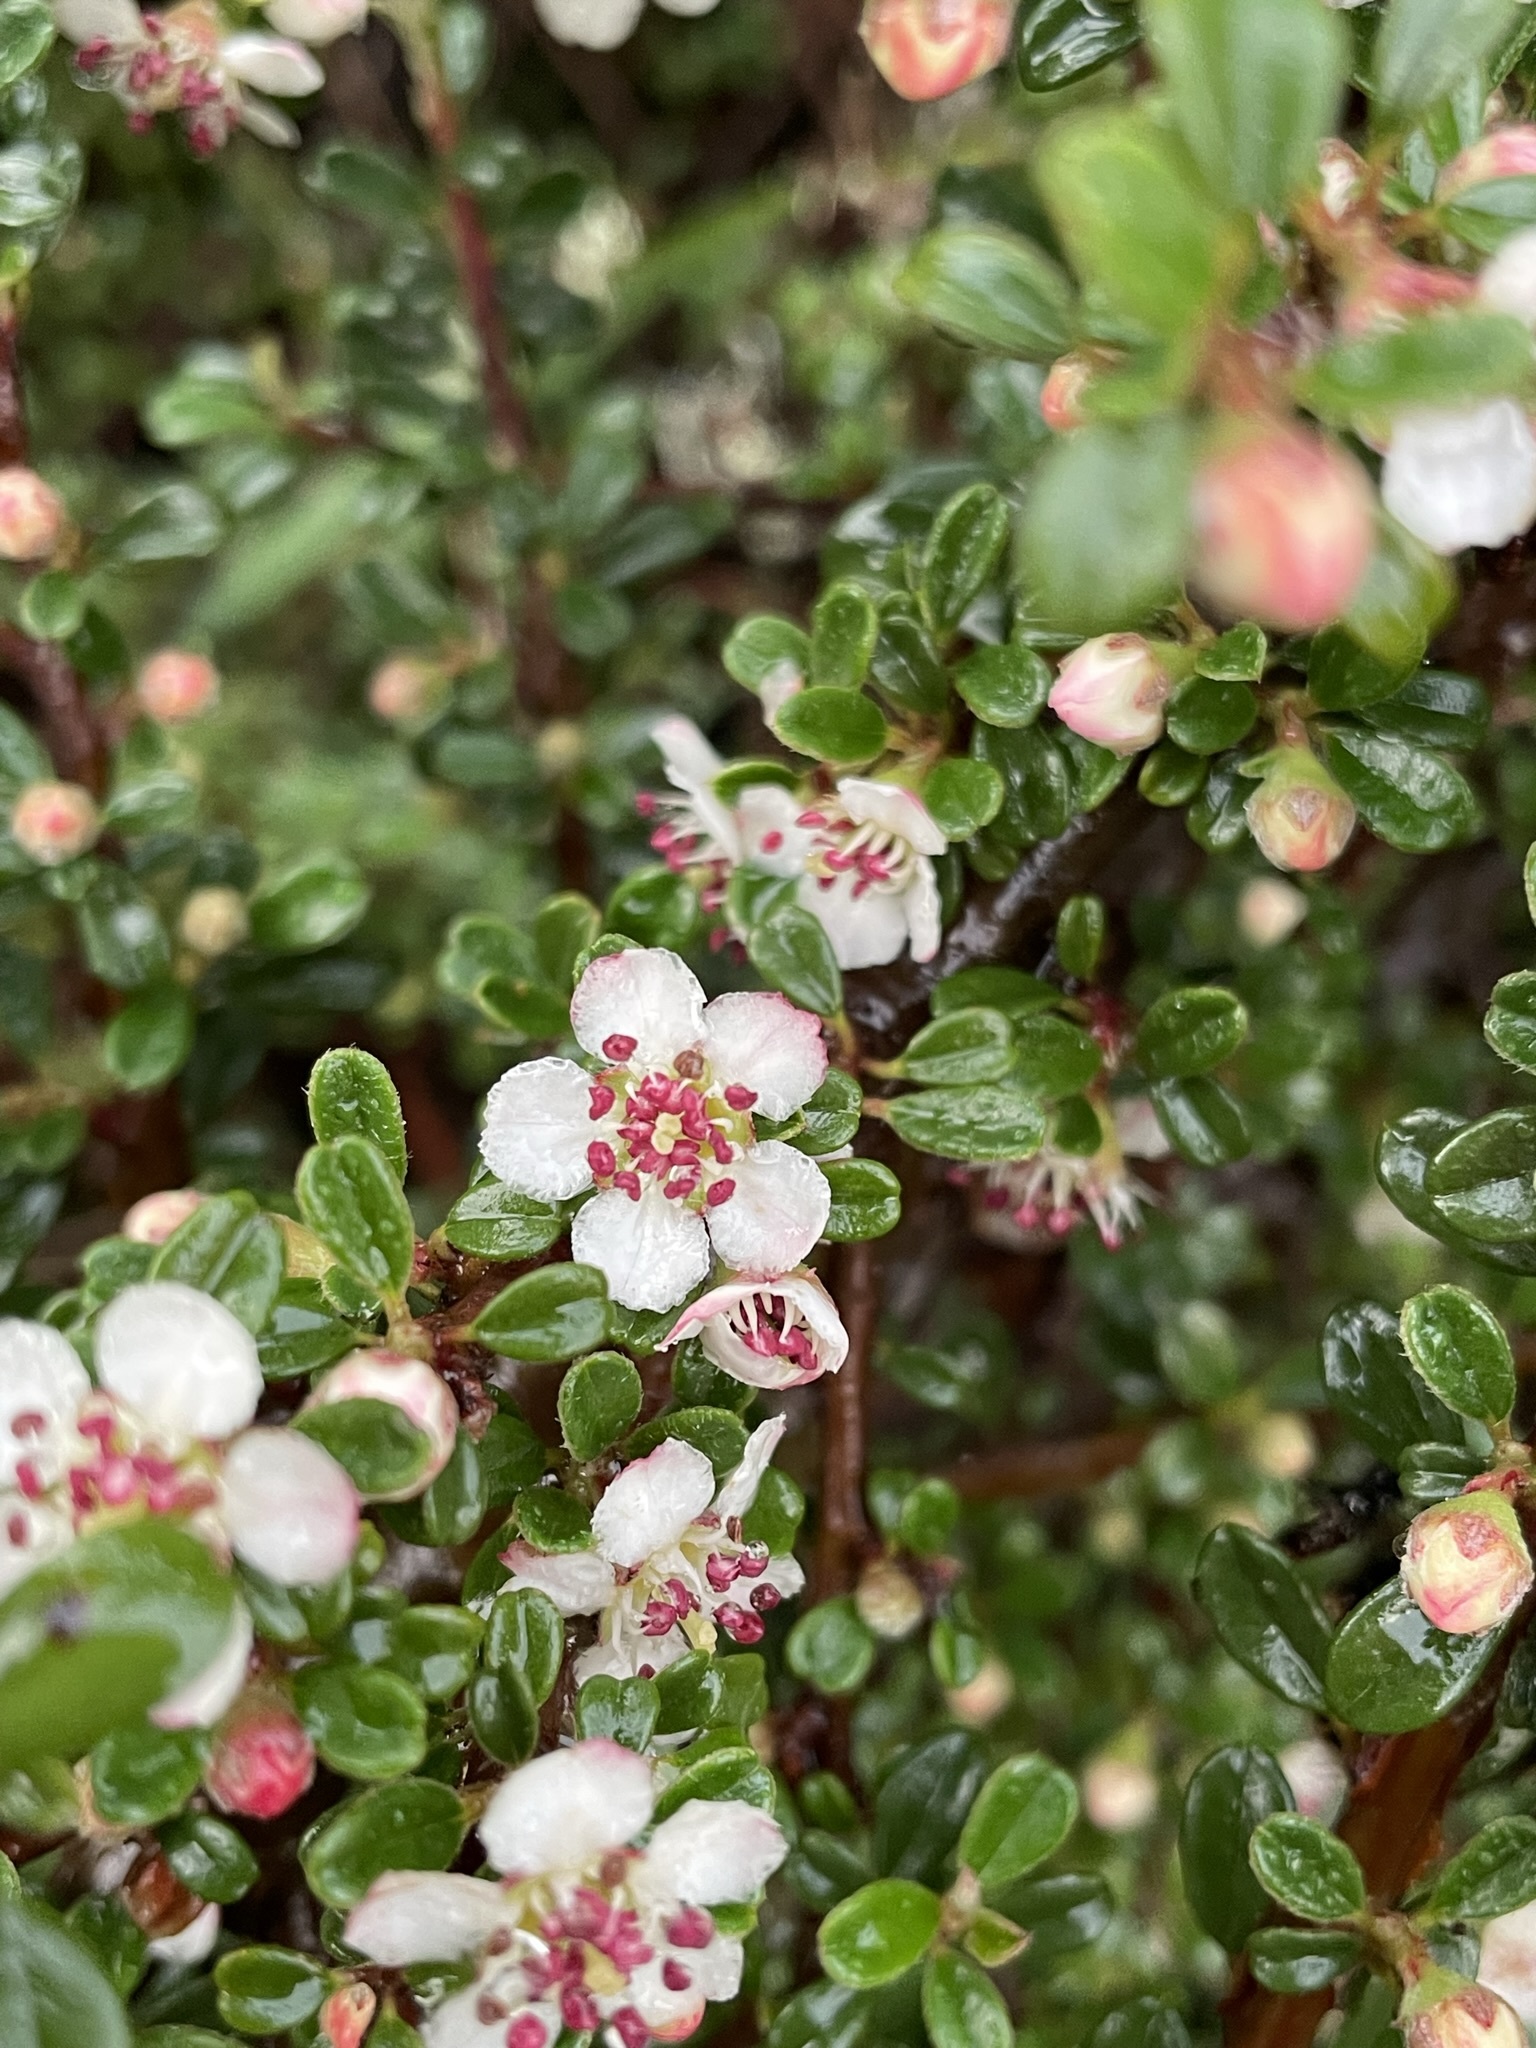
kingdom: Plantae
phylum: Tracheophyta
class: Magnoliopsida
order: Rosales
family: Rosaceae
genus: Cotoneaster
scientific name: Cotoneaster microphyllus
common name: Small-leaved cotoneaster
